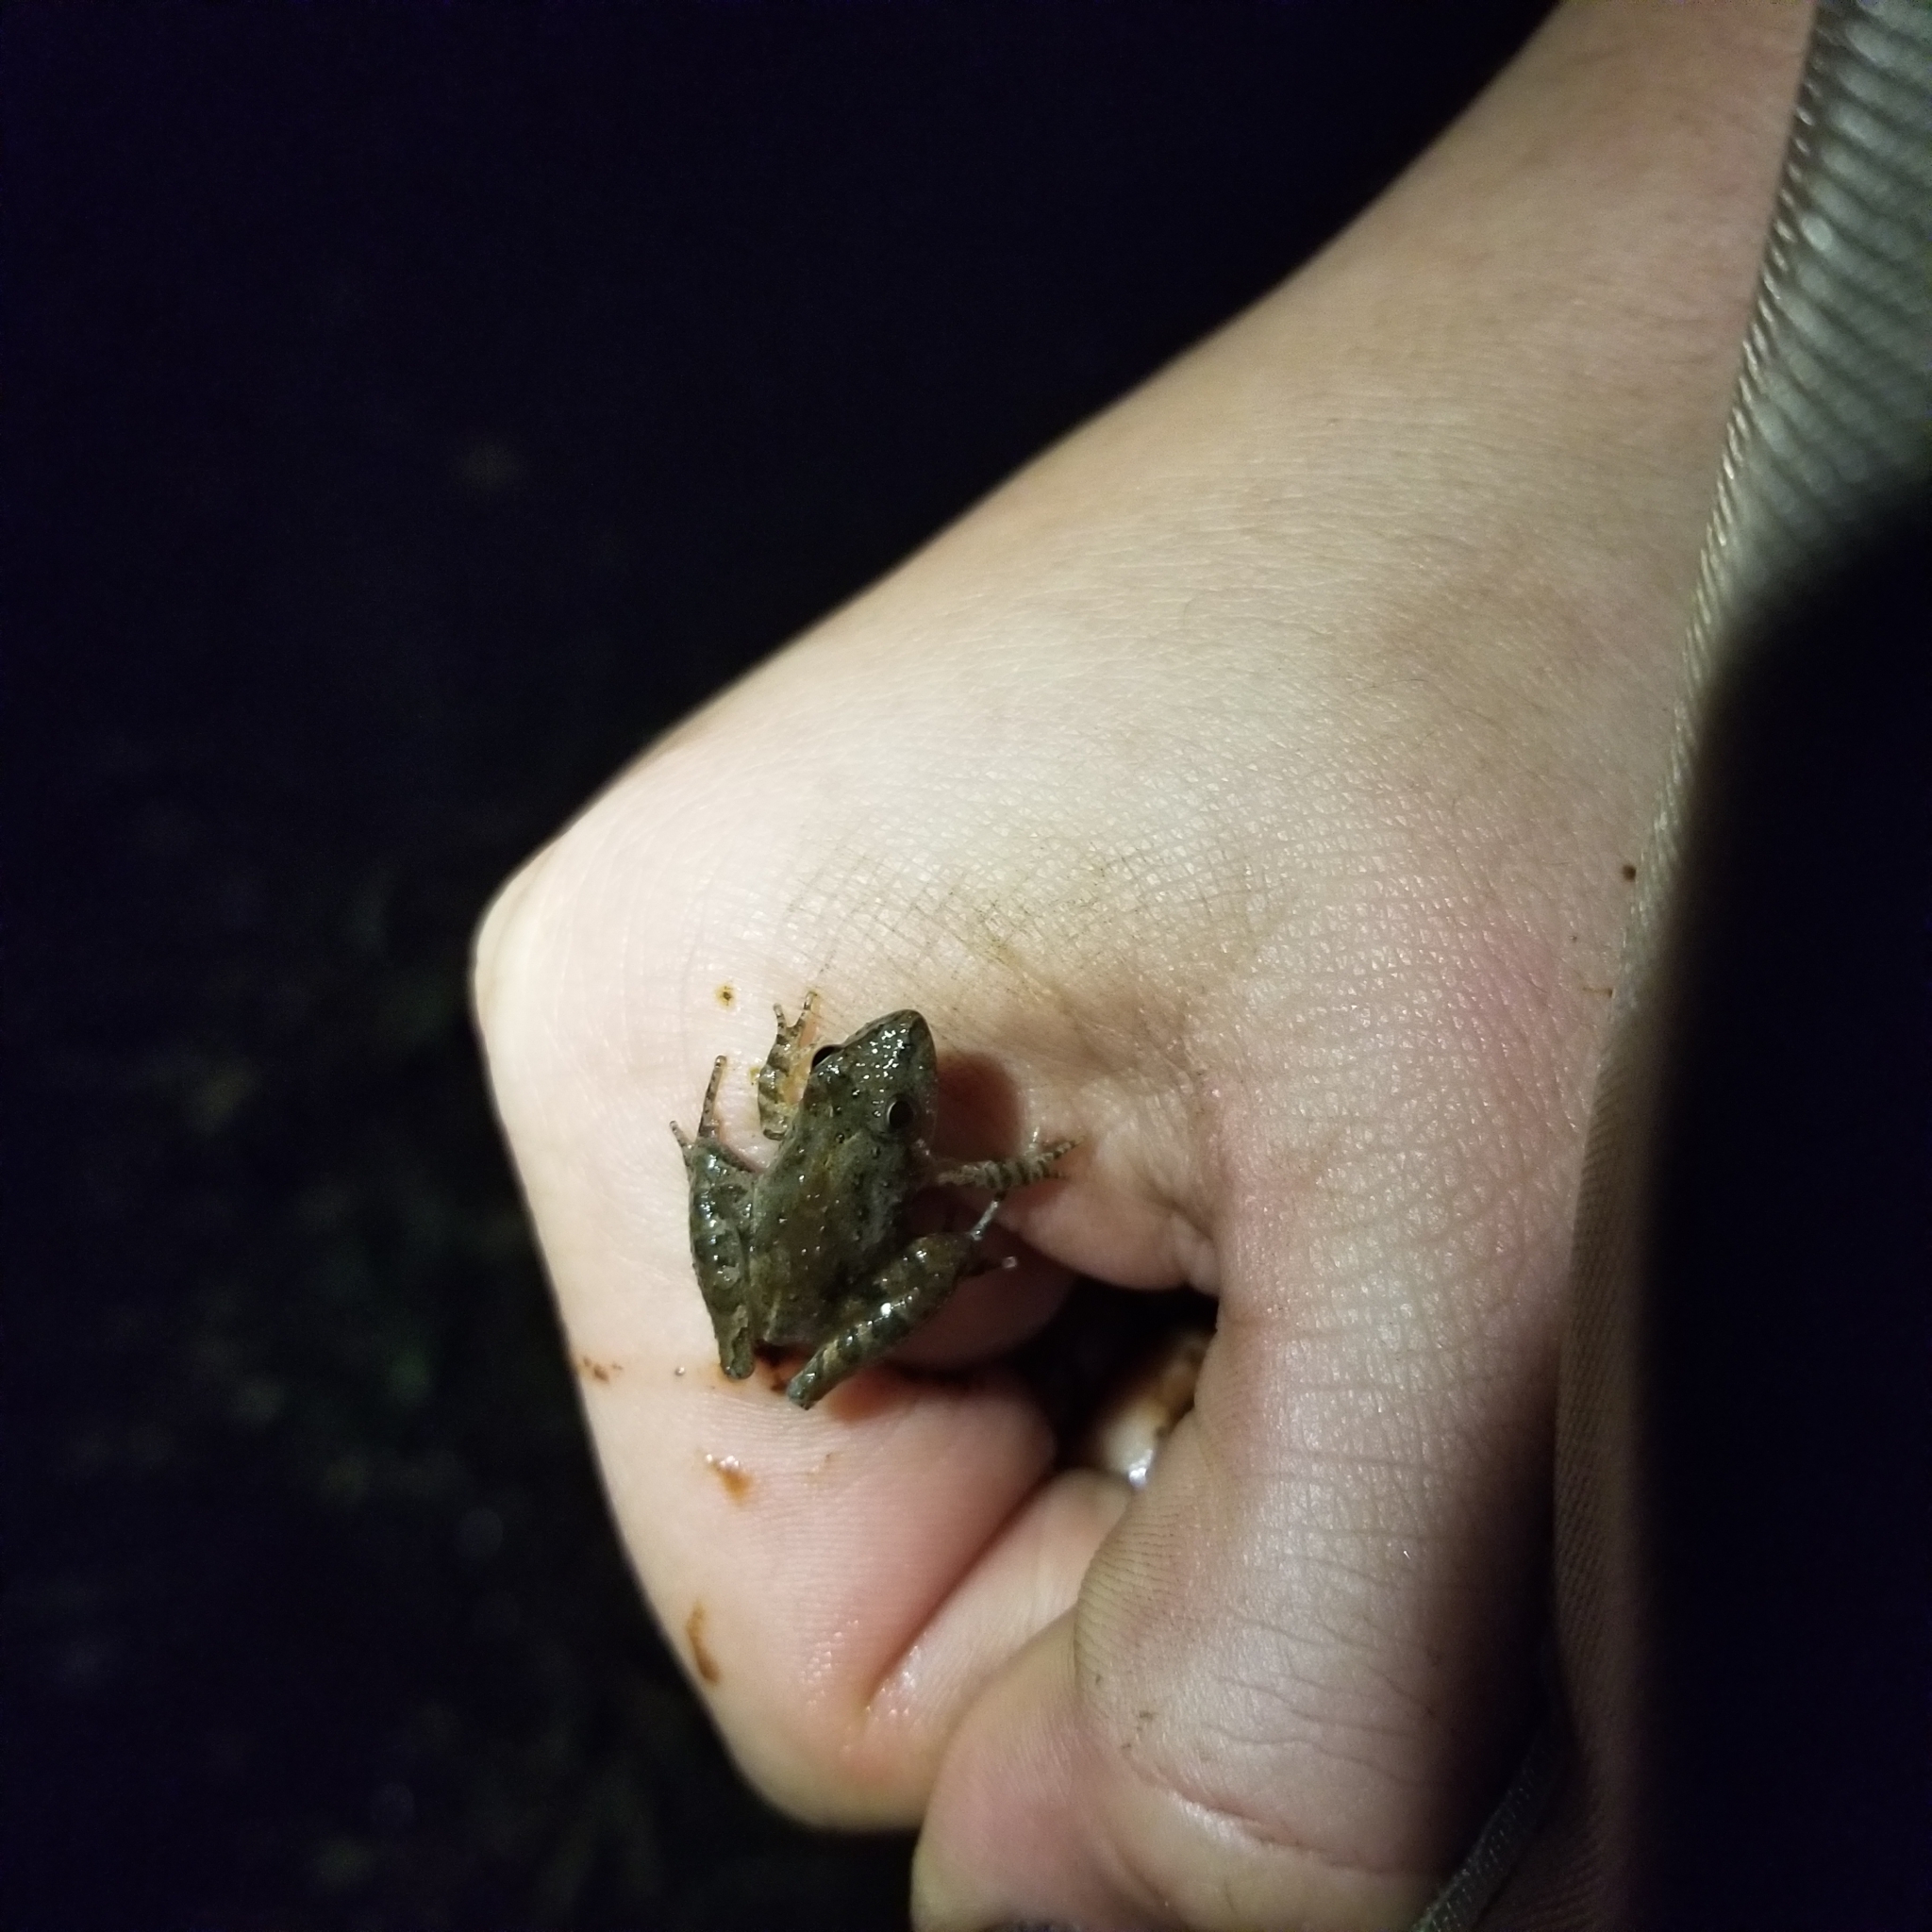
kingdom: Animalia
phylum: Chordata
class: Amphibia
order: Anura
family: Hylidae
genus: Acris
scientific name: Acris gryllus
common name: Southern cricket frog
